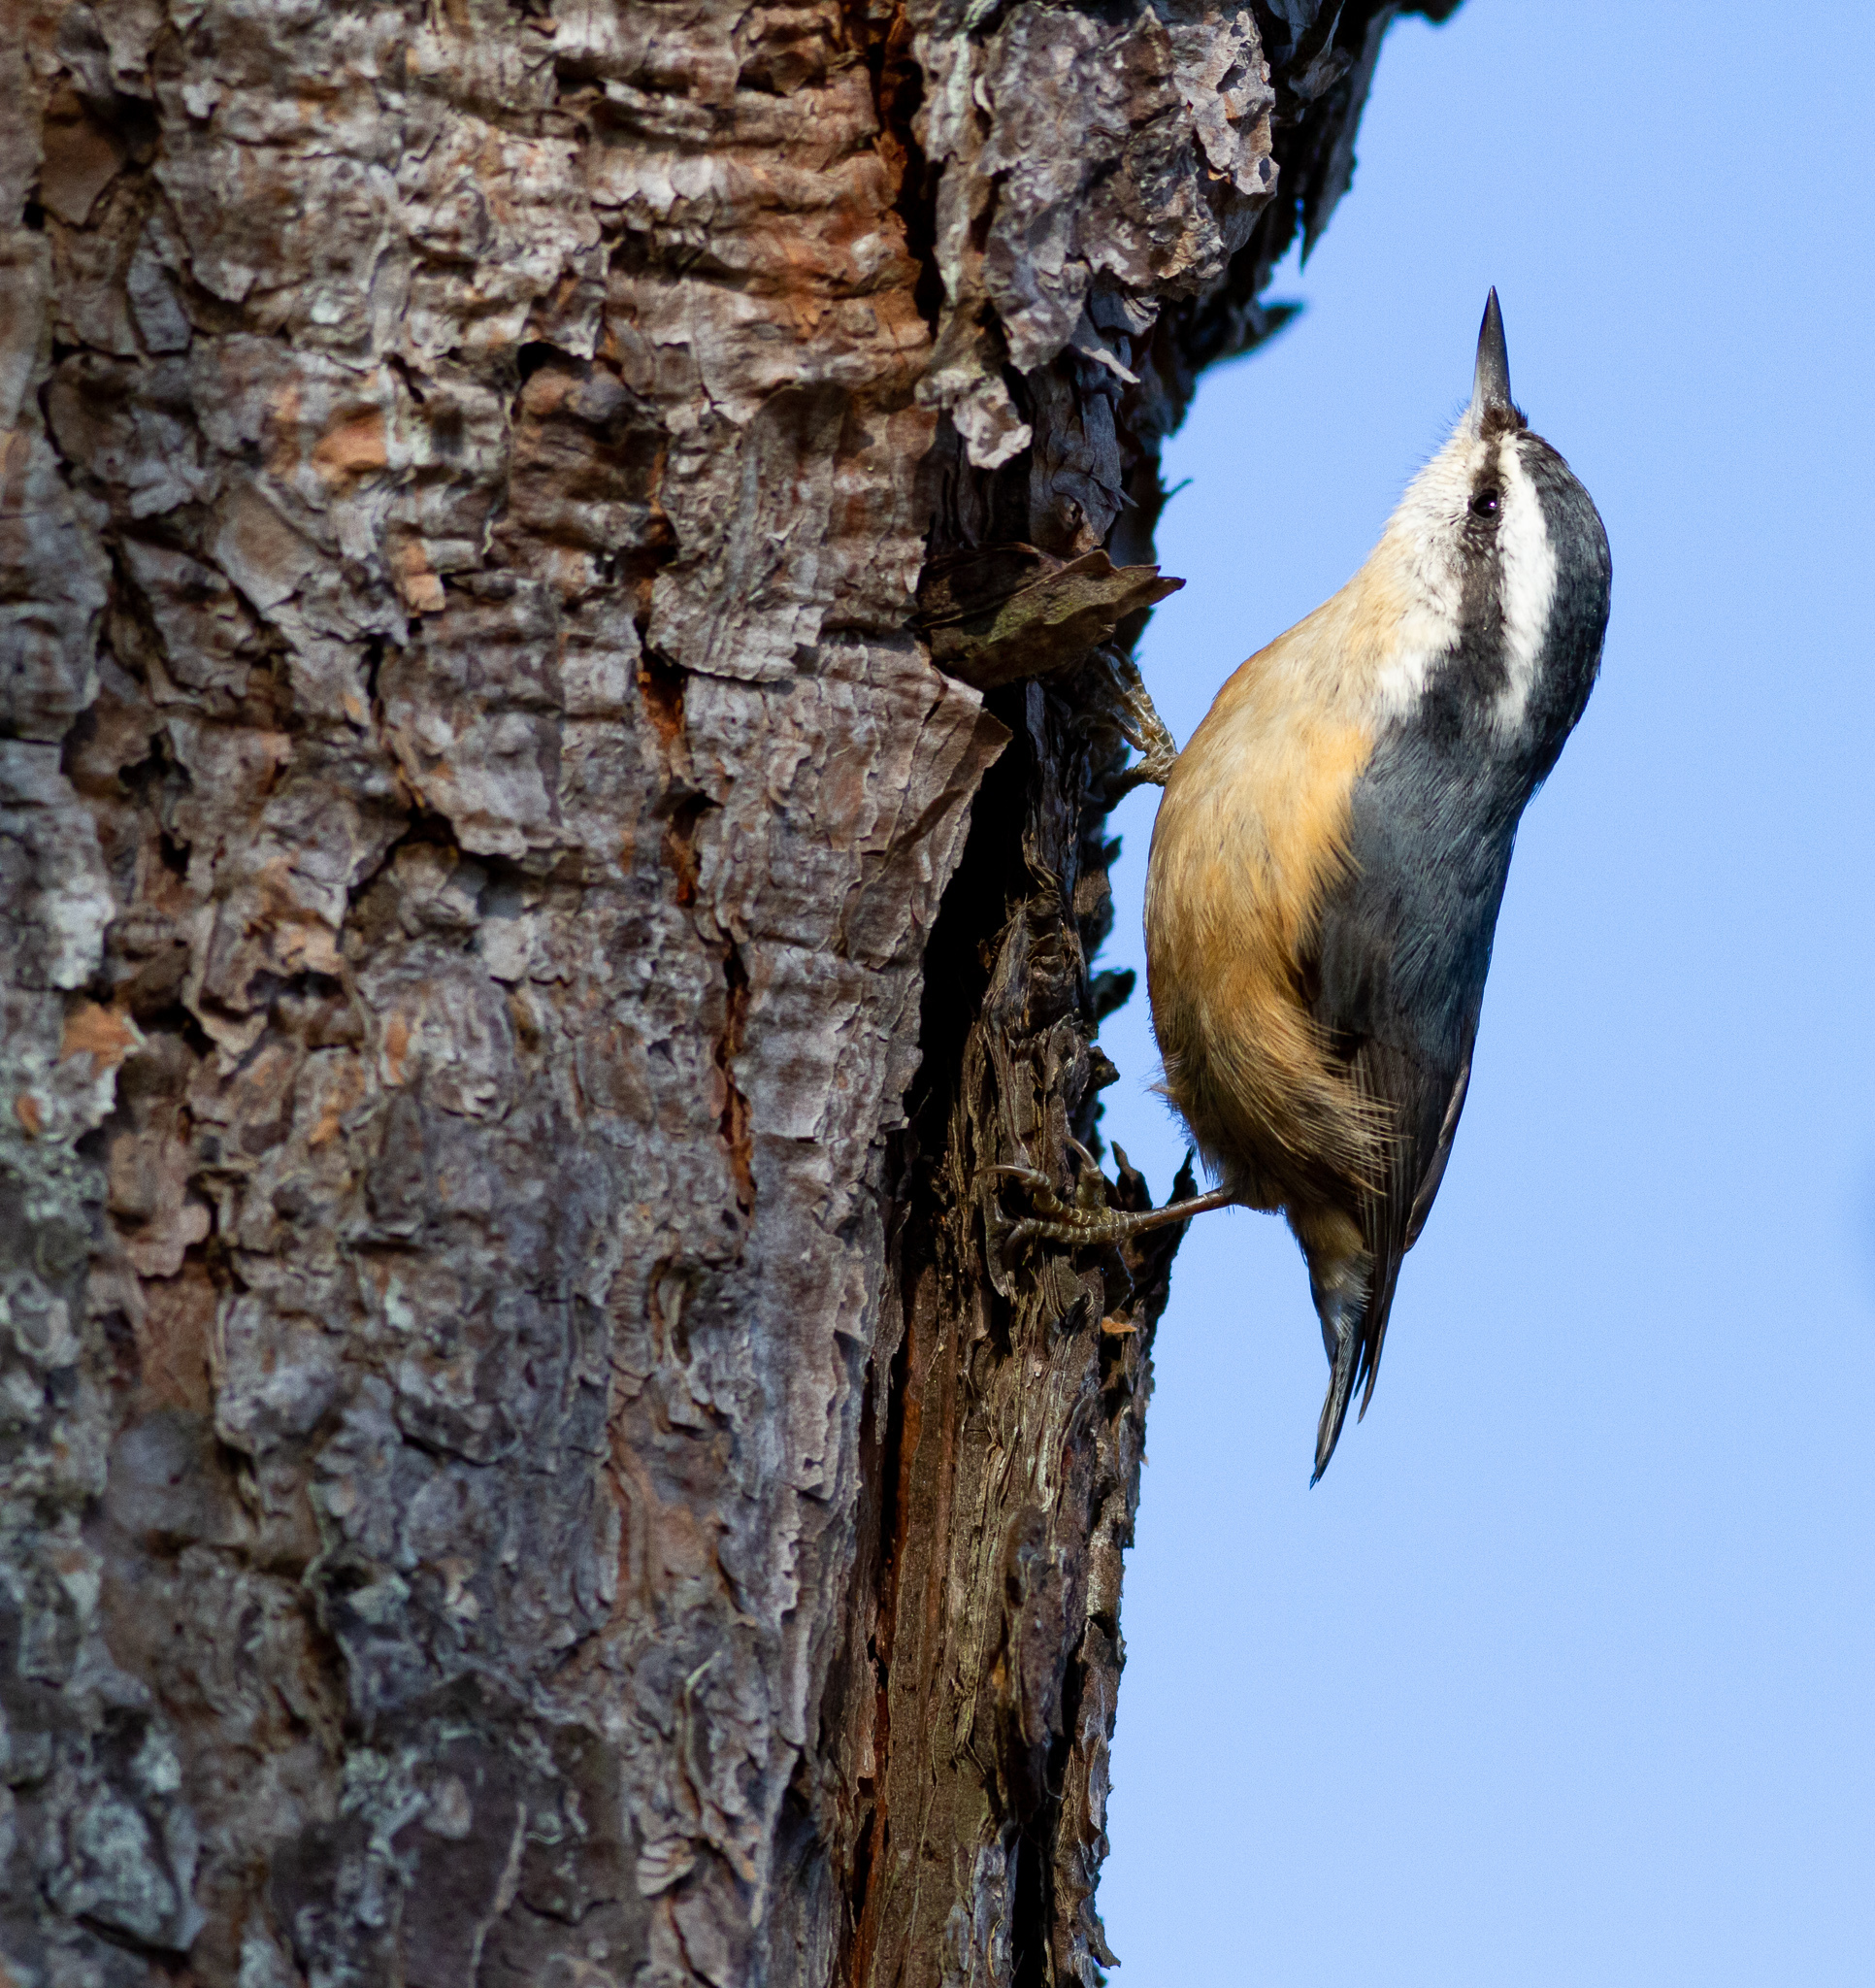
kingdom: Animalia
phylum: Chordata
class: Aves
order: Passeriformes
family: Sittidae
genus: Sitta
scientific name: Sitta canadensis
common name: Red-breasted nuthatch
